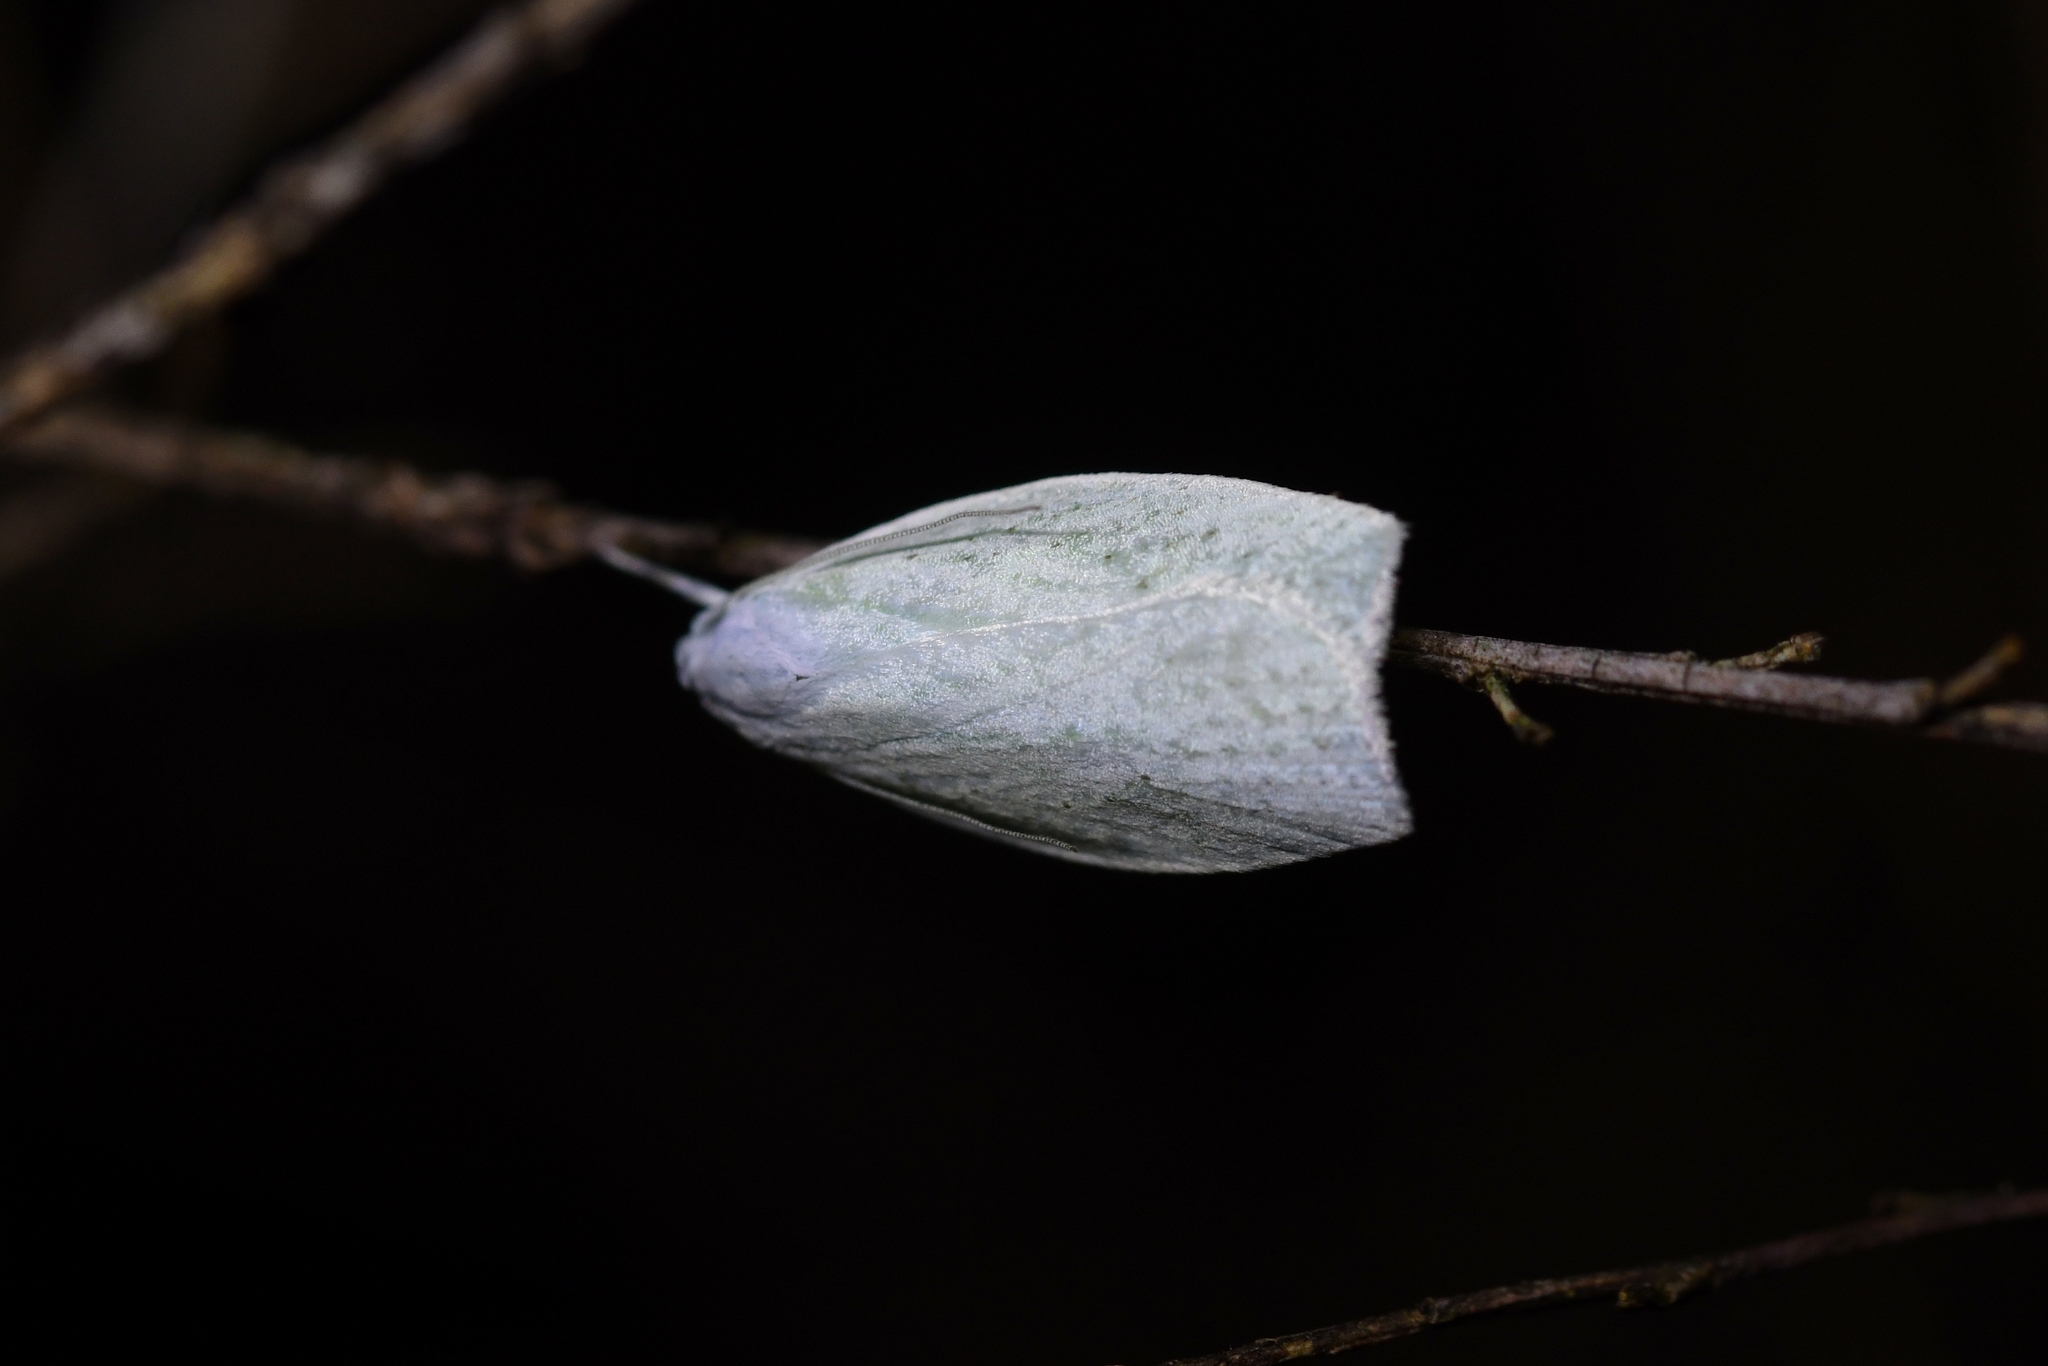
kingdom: Animalia
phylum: Arthropoda
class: Insecta
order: Lepidoptera
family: Oecophoridae
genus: Nymphostola
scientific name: Nymphostola galactina
